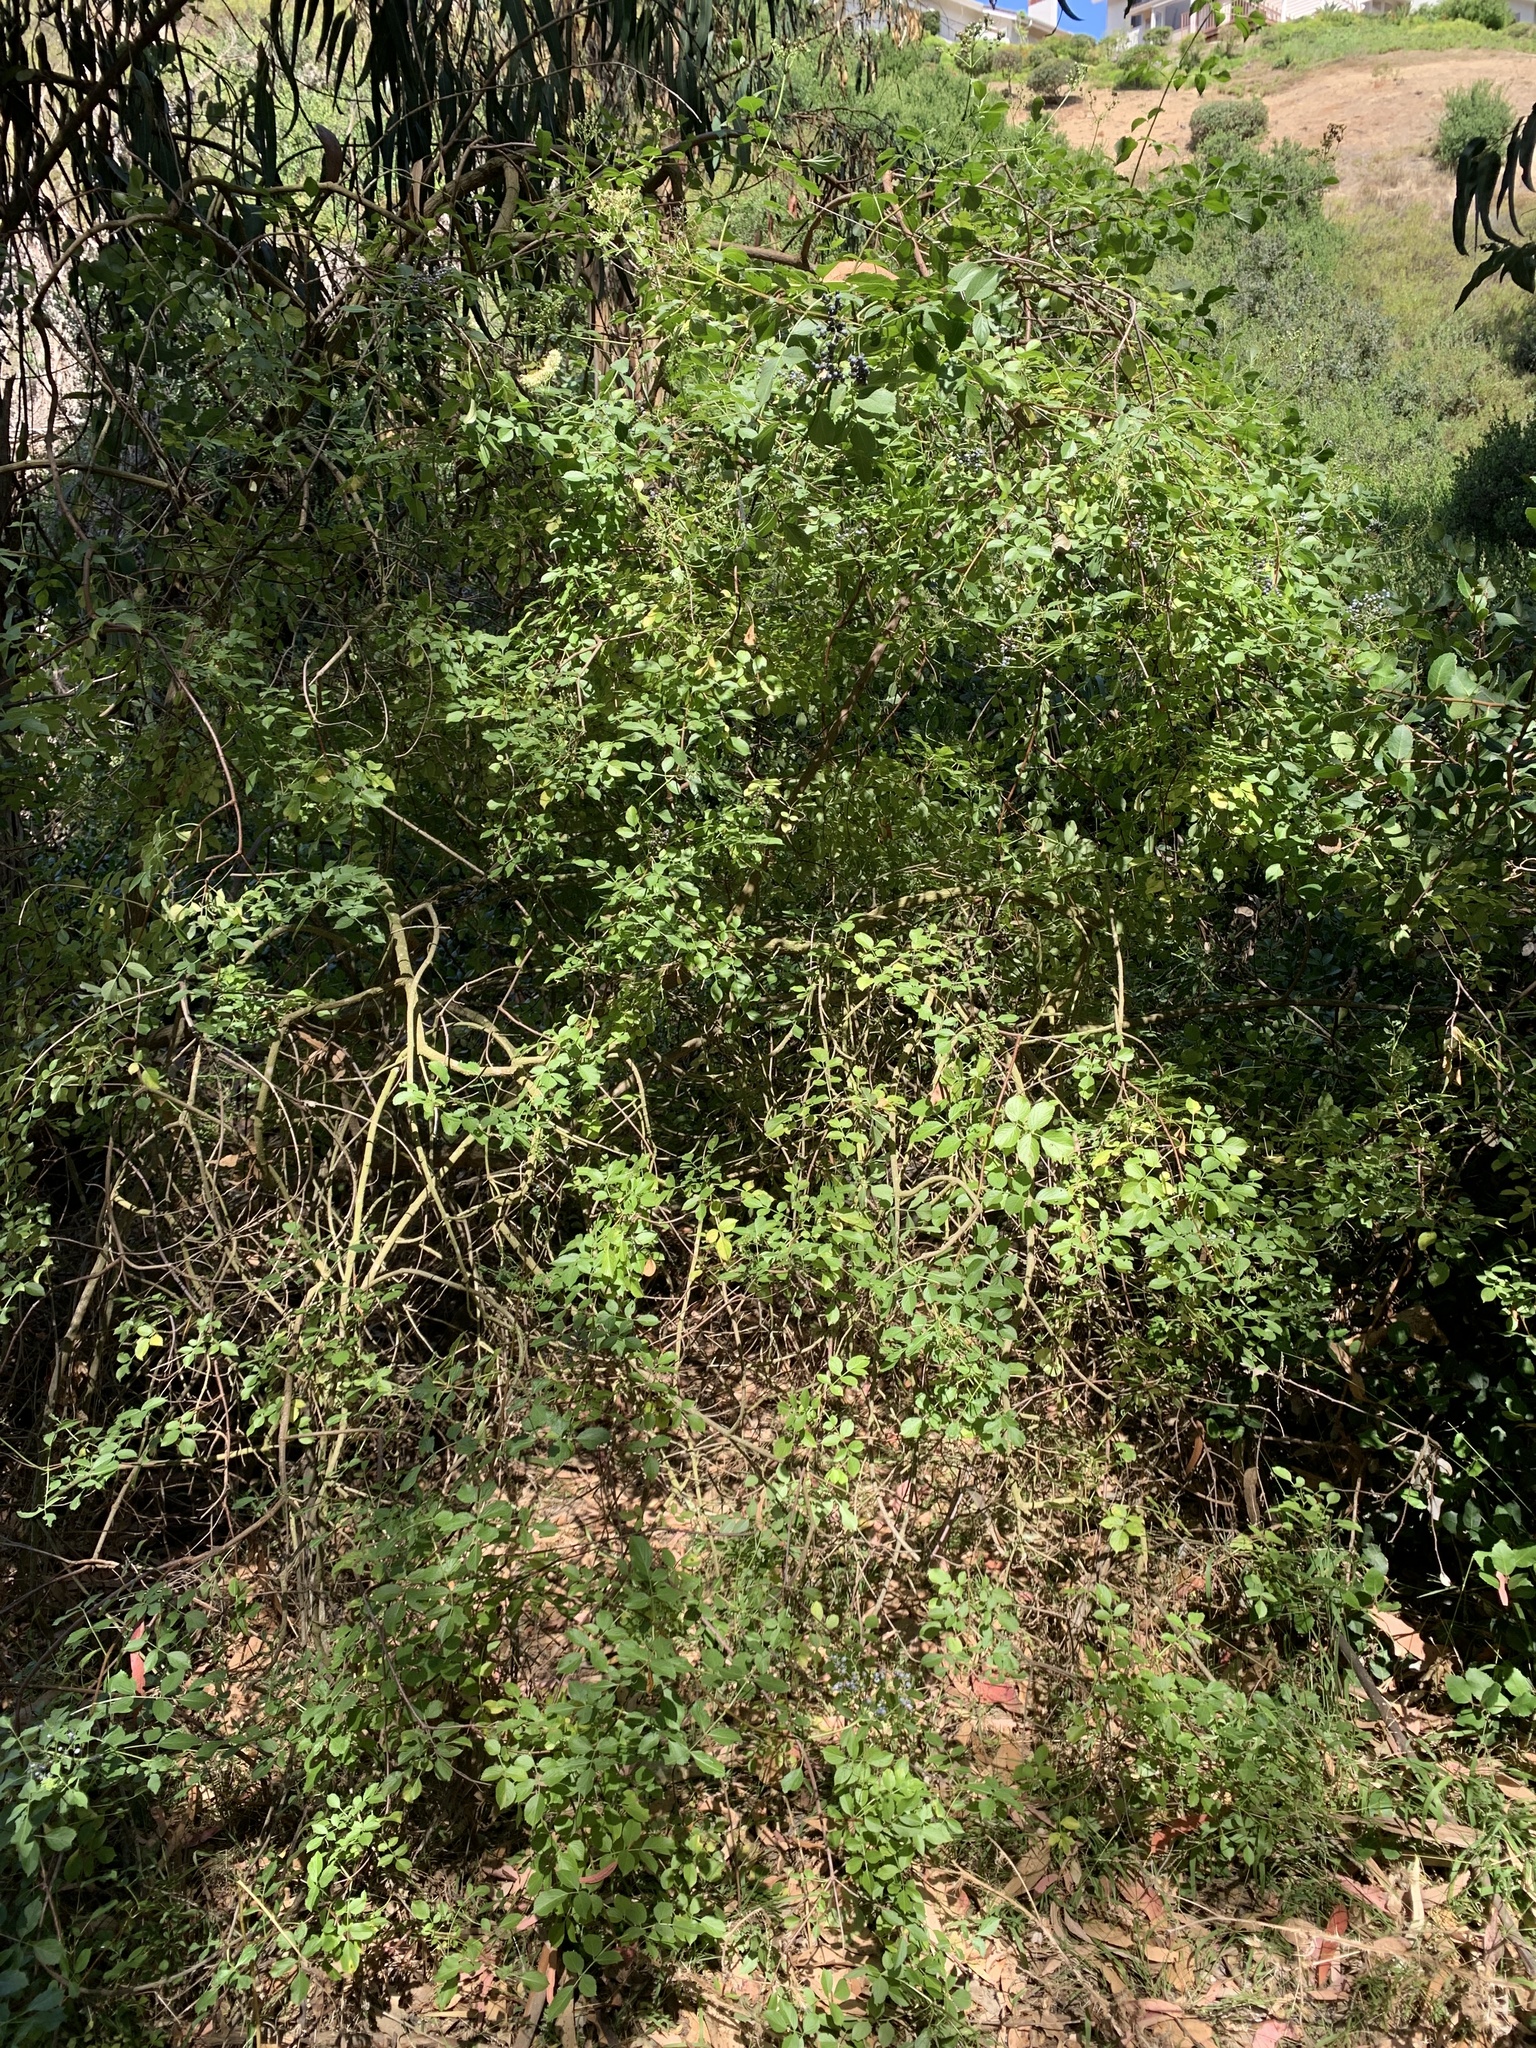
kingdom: Plantae
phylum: Tracheophyta
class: Magnoliopsida
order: Dipsacales
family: Viburnaceae
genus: Sambucus
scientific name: Sambucus cerulea
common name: Blue elder
